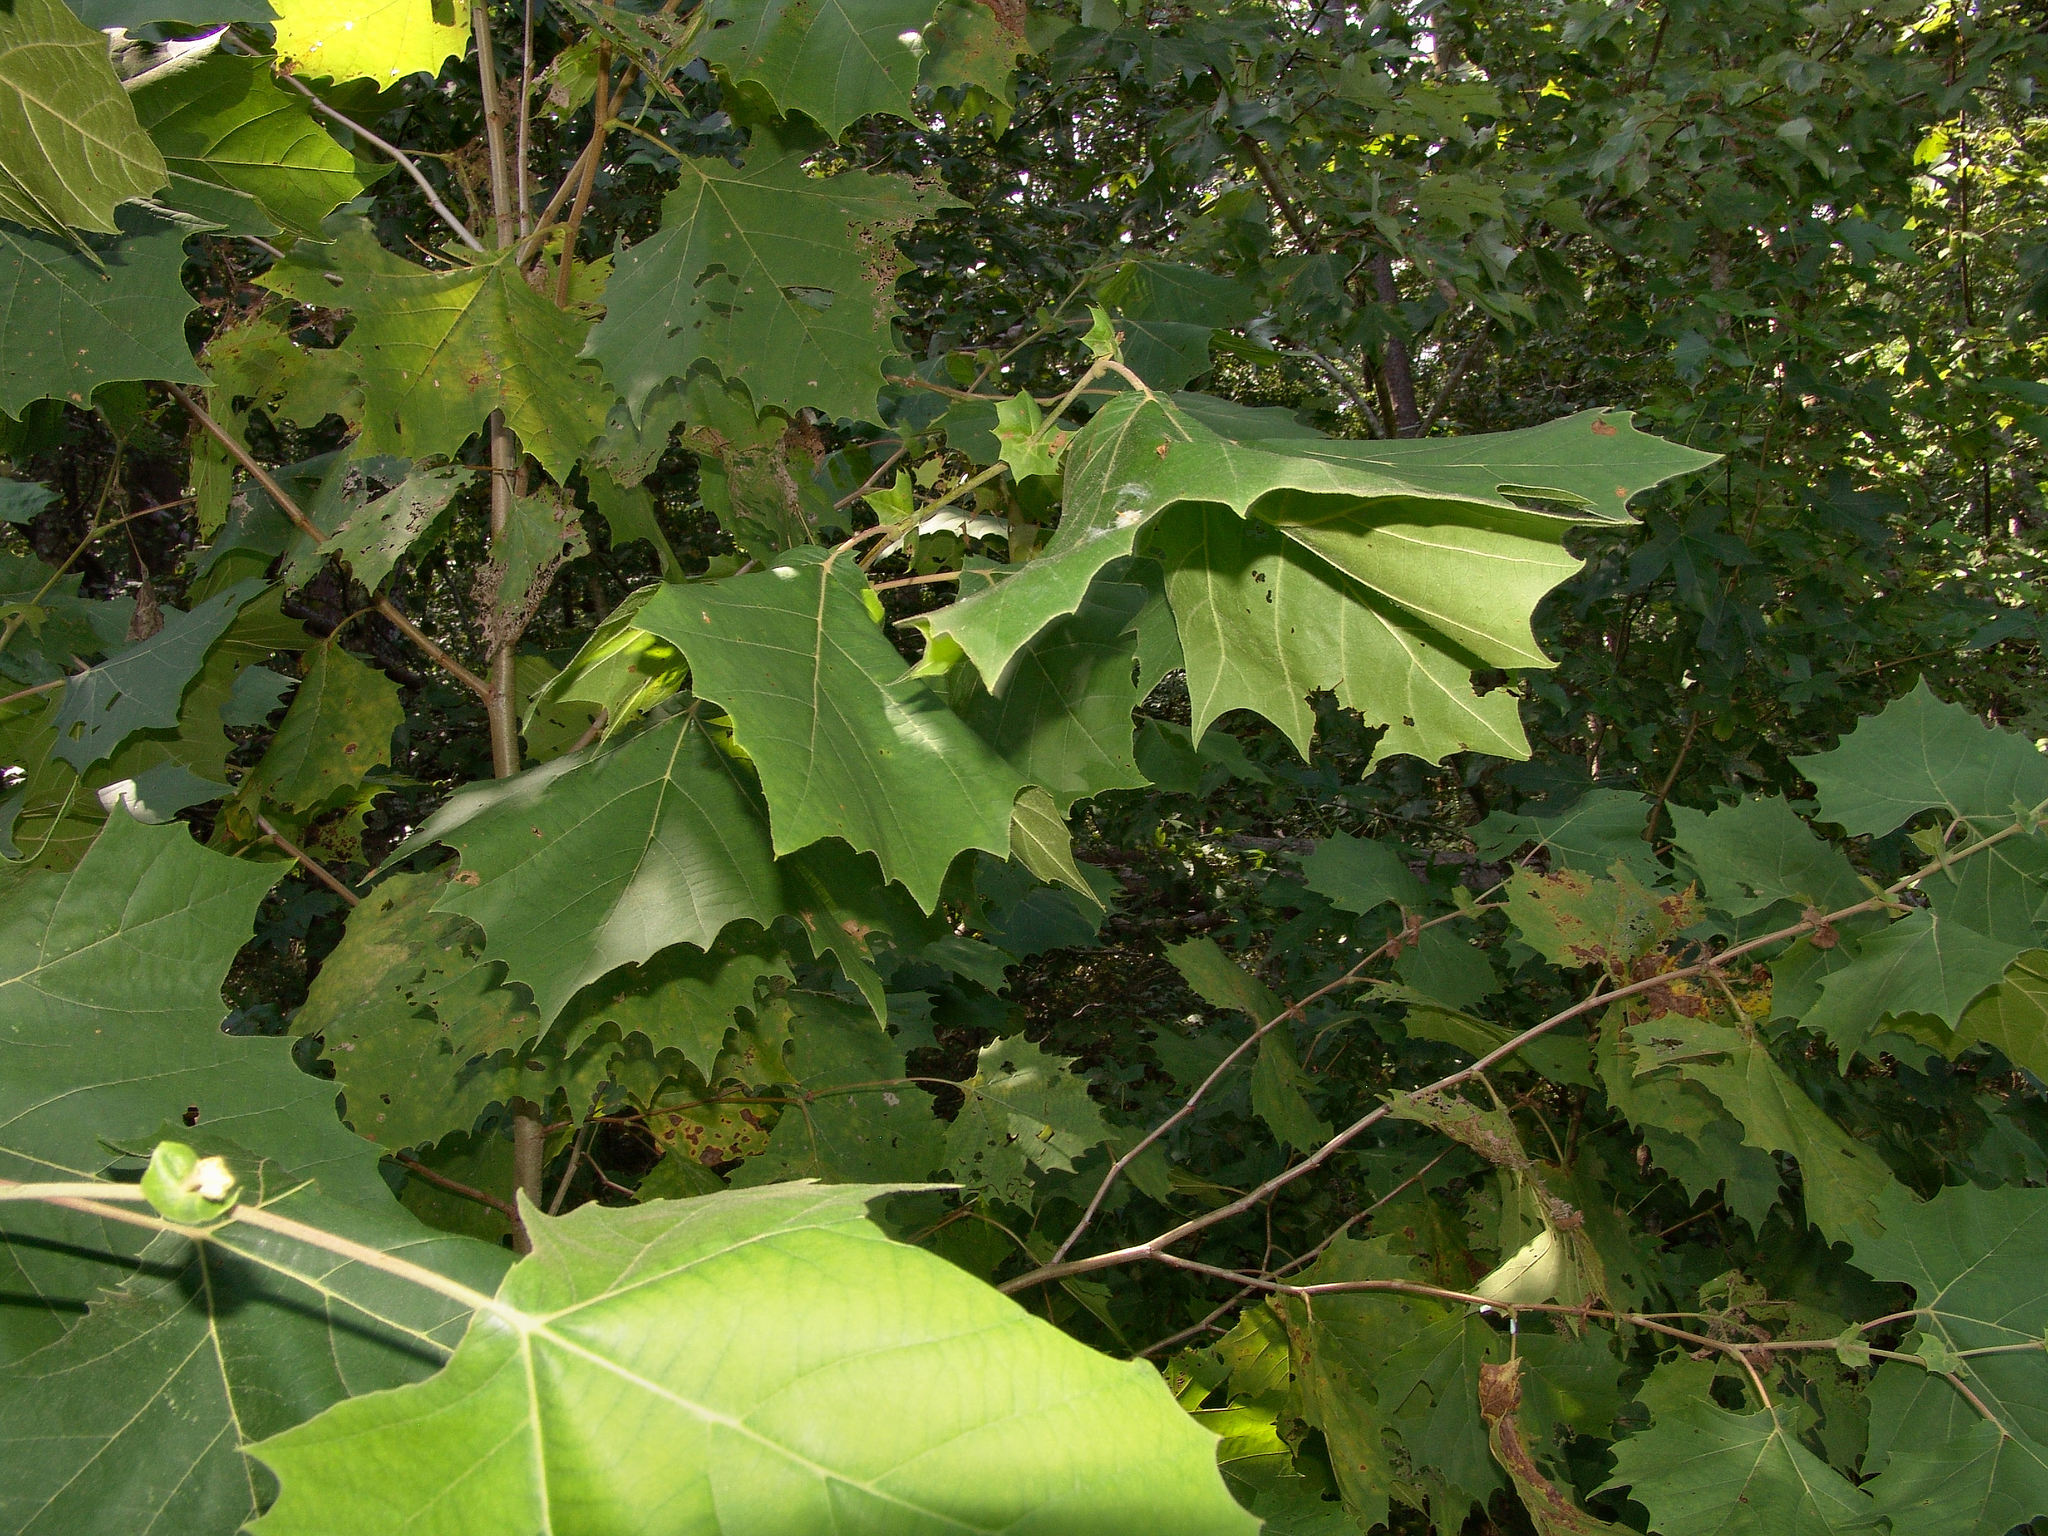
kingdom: Plantae
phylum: Tracheophyta
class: Magnoliopsida
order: Proteales
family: Platanaceae
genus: Platanus
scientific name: Platanus occidentalis
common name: American sycamore
